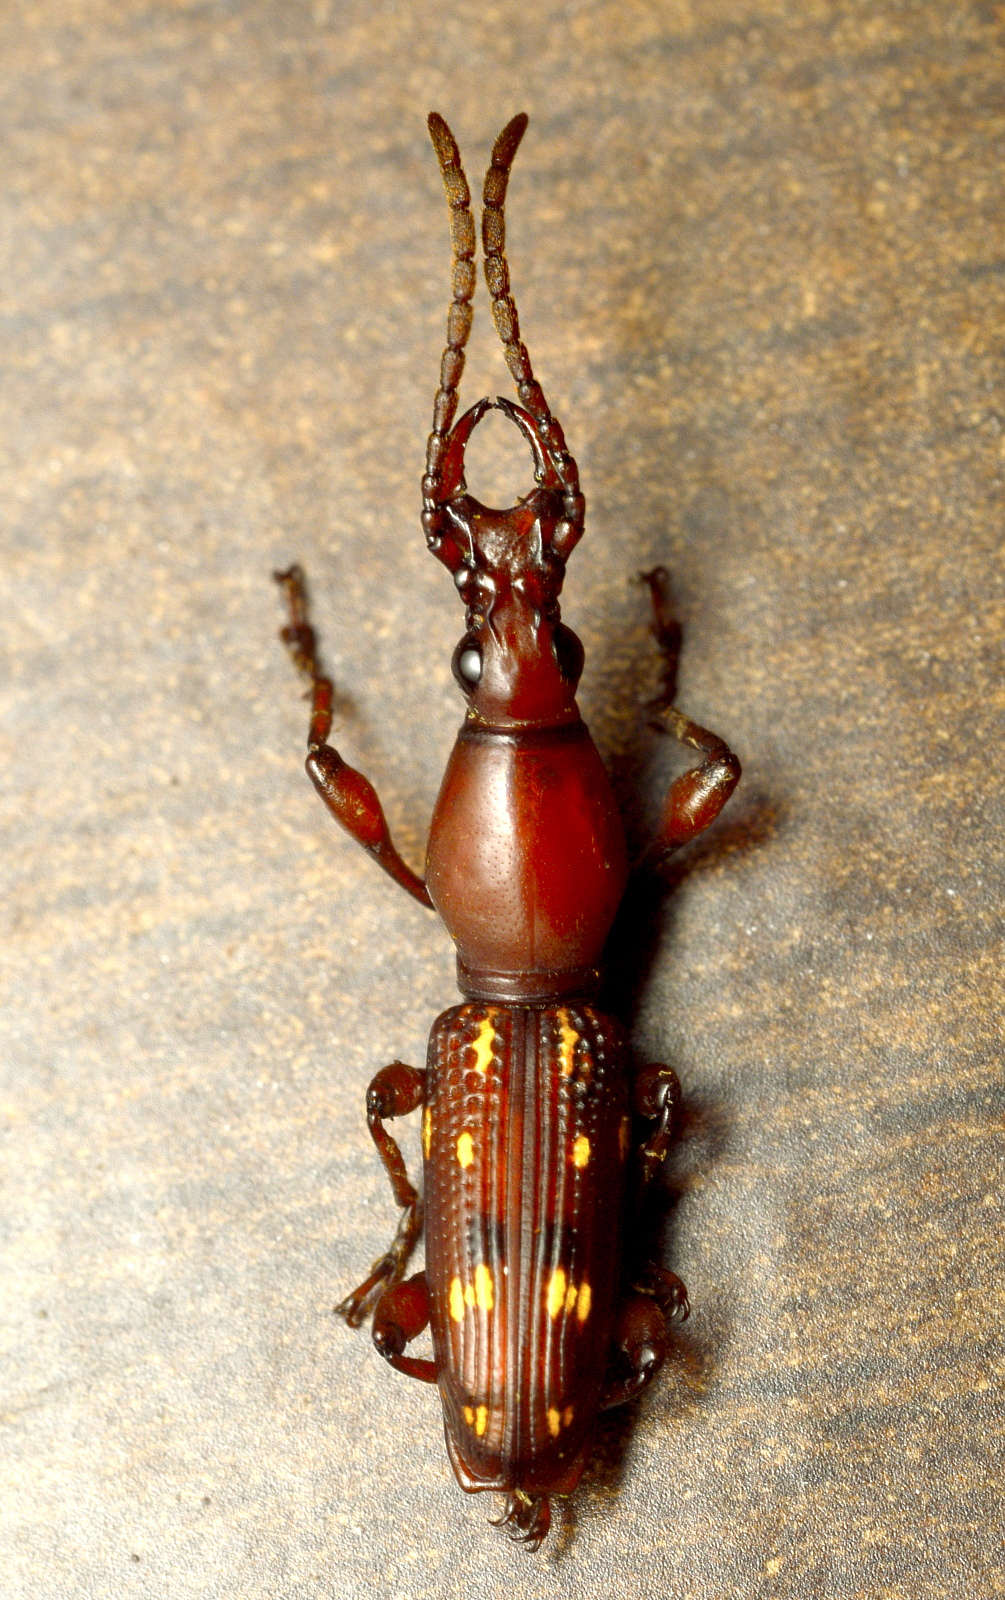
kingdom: Animalia
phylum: Arthropoda
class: Insecta
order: Coleoptera
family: Brentidae
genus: Orfilaia
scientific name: Orfilaia truncata
